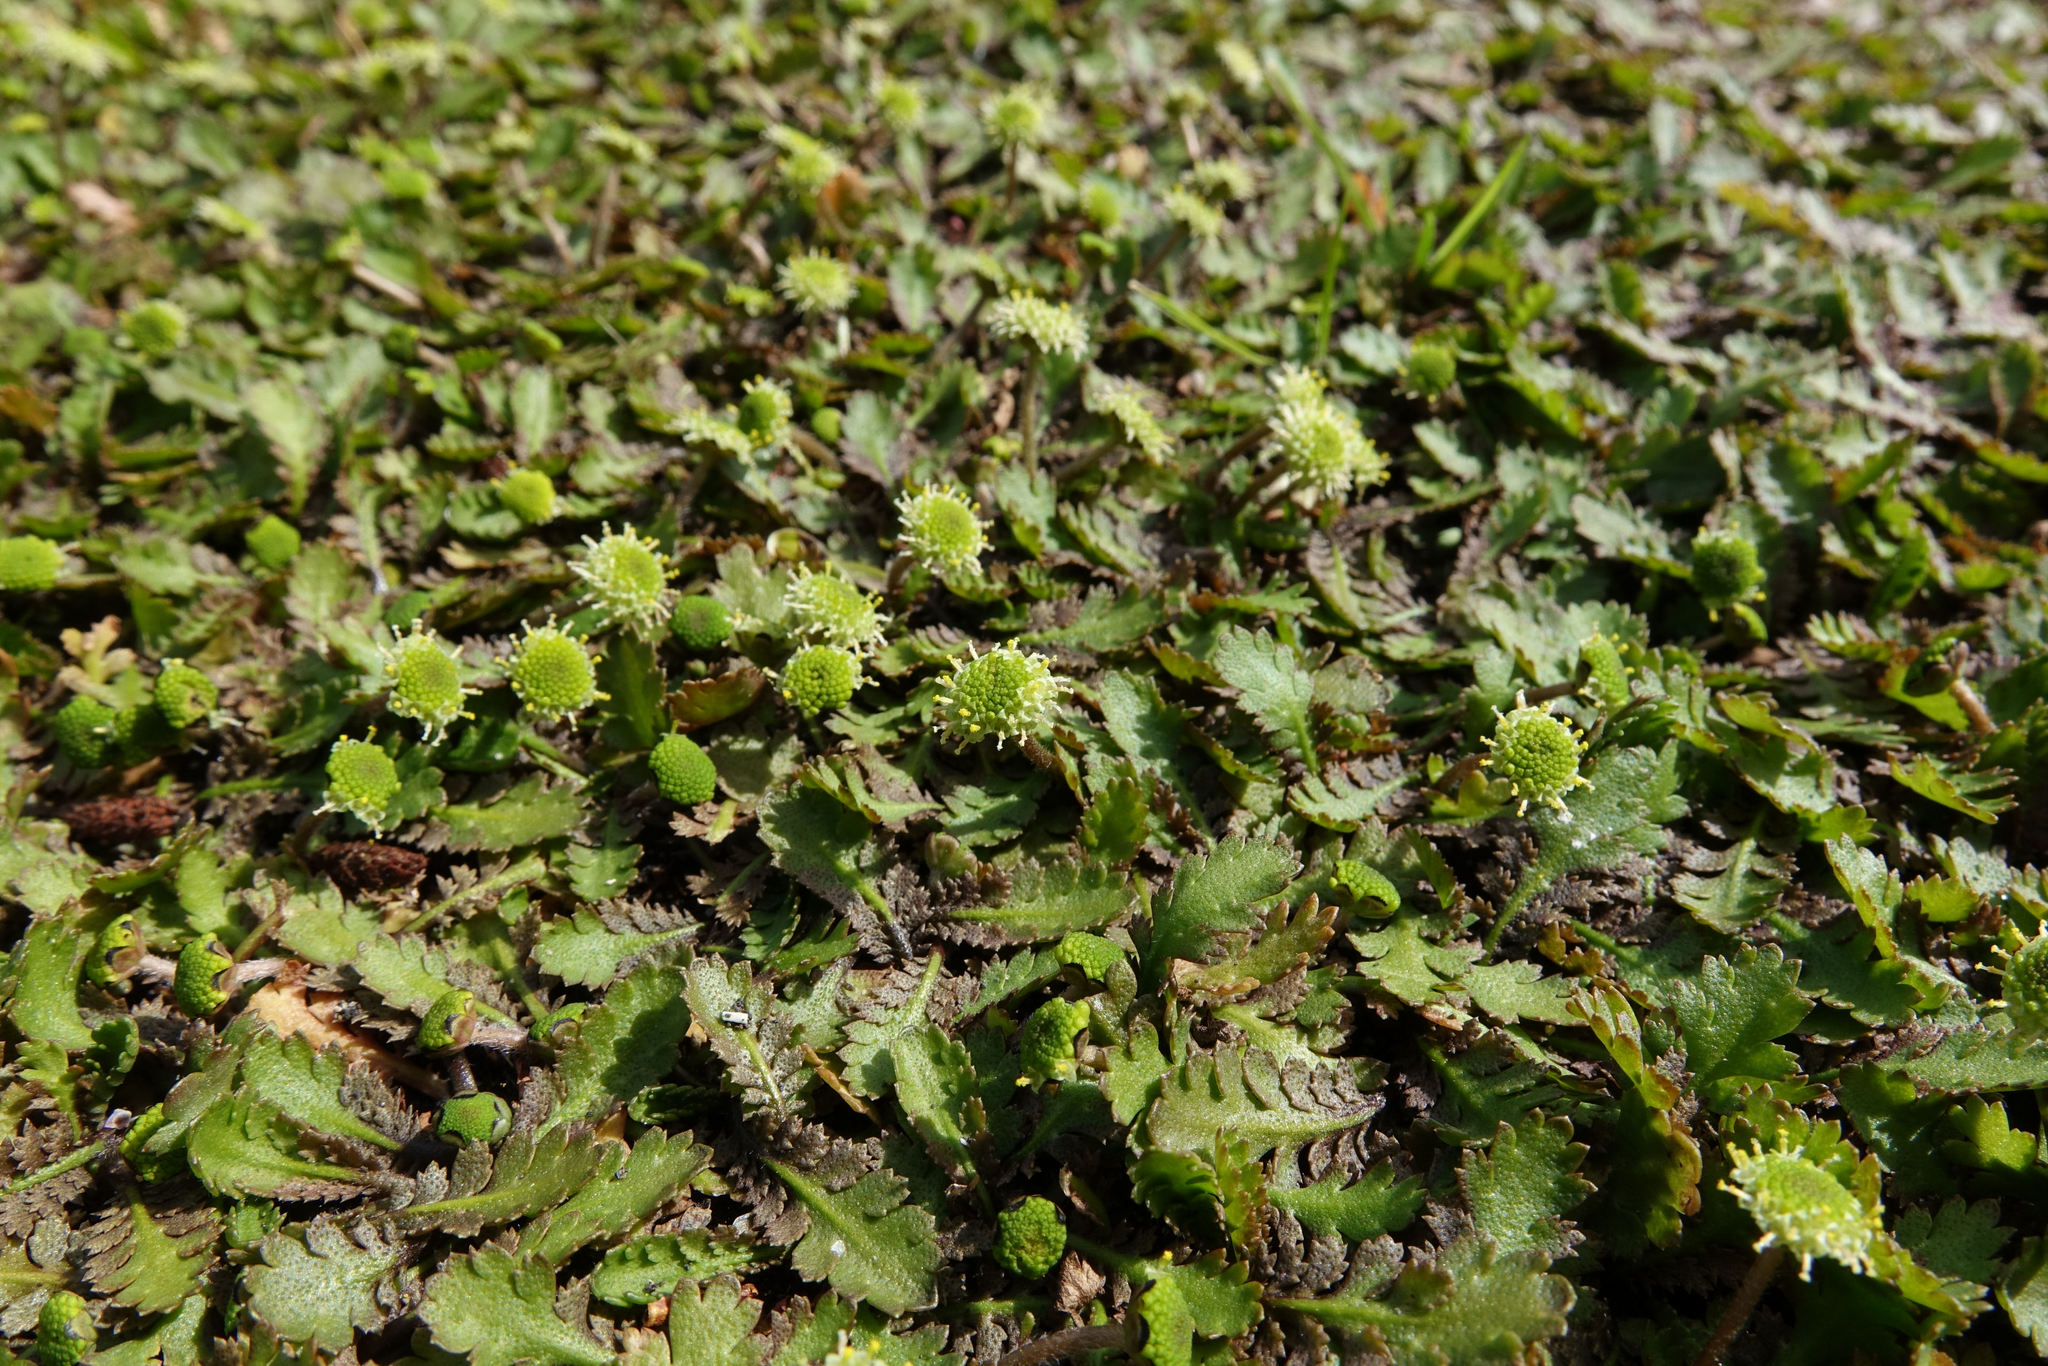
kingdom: Plantae
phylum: Tracheophyta
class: Magnoliopsida
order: Asterales
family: Asteraceae
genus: Leptinella
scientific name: Leptinella dioica
